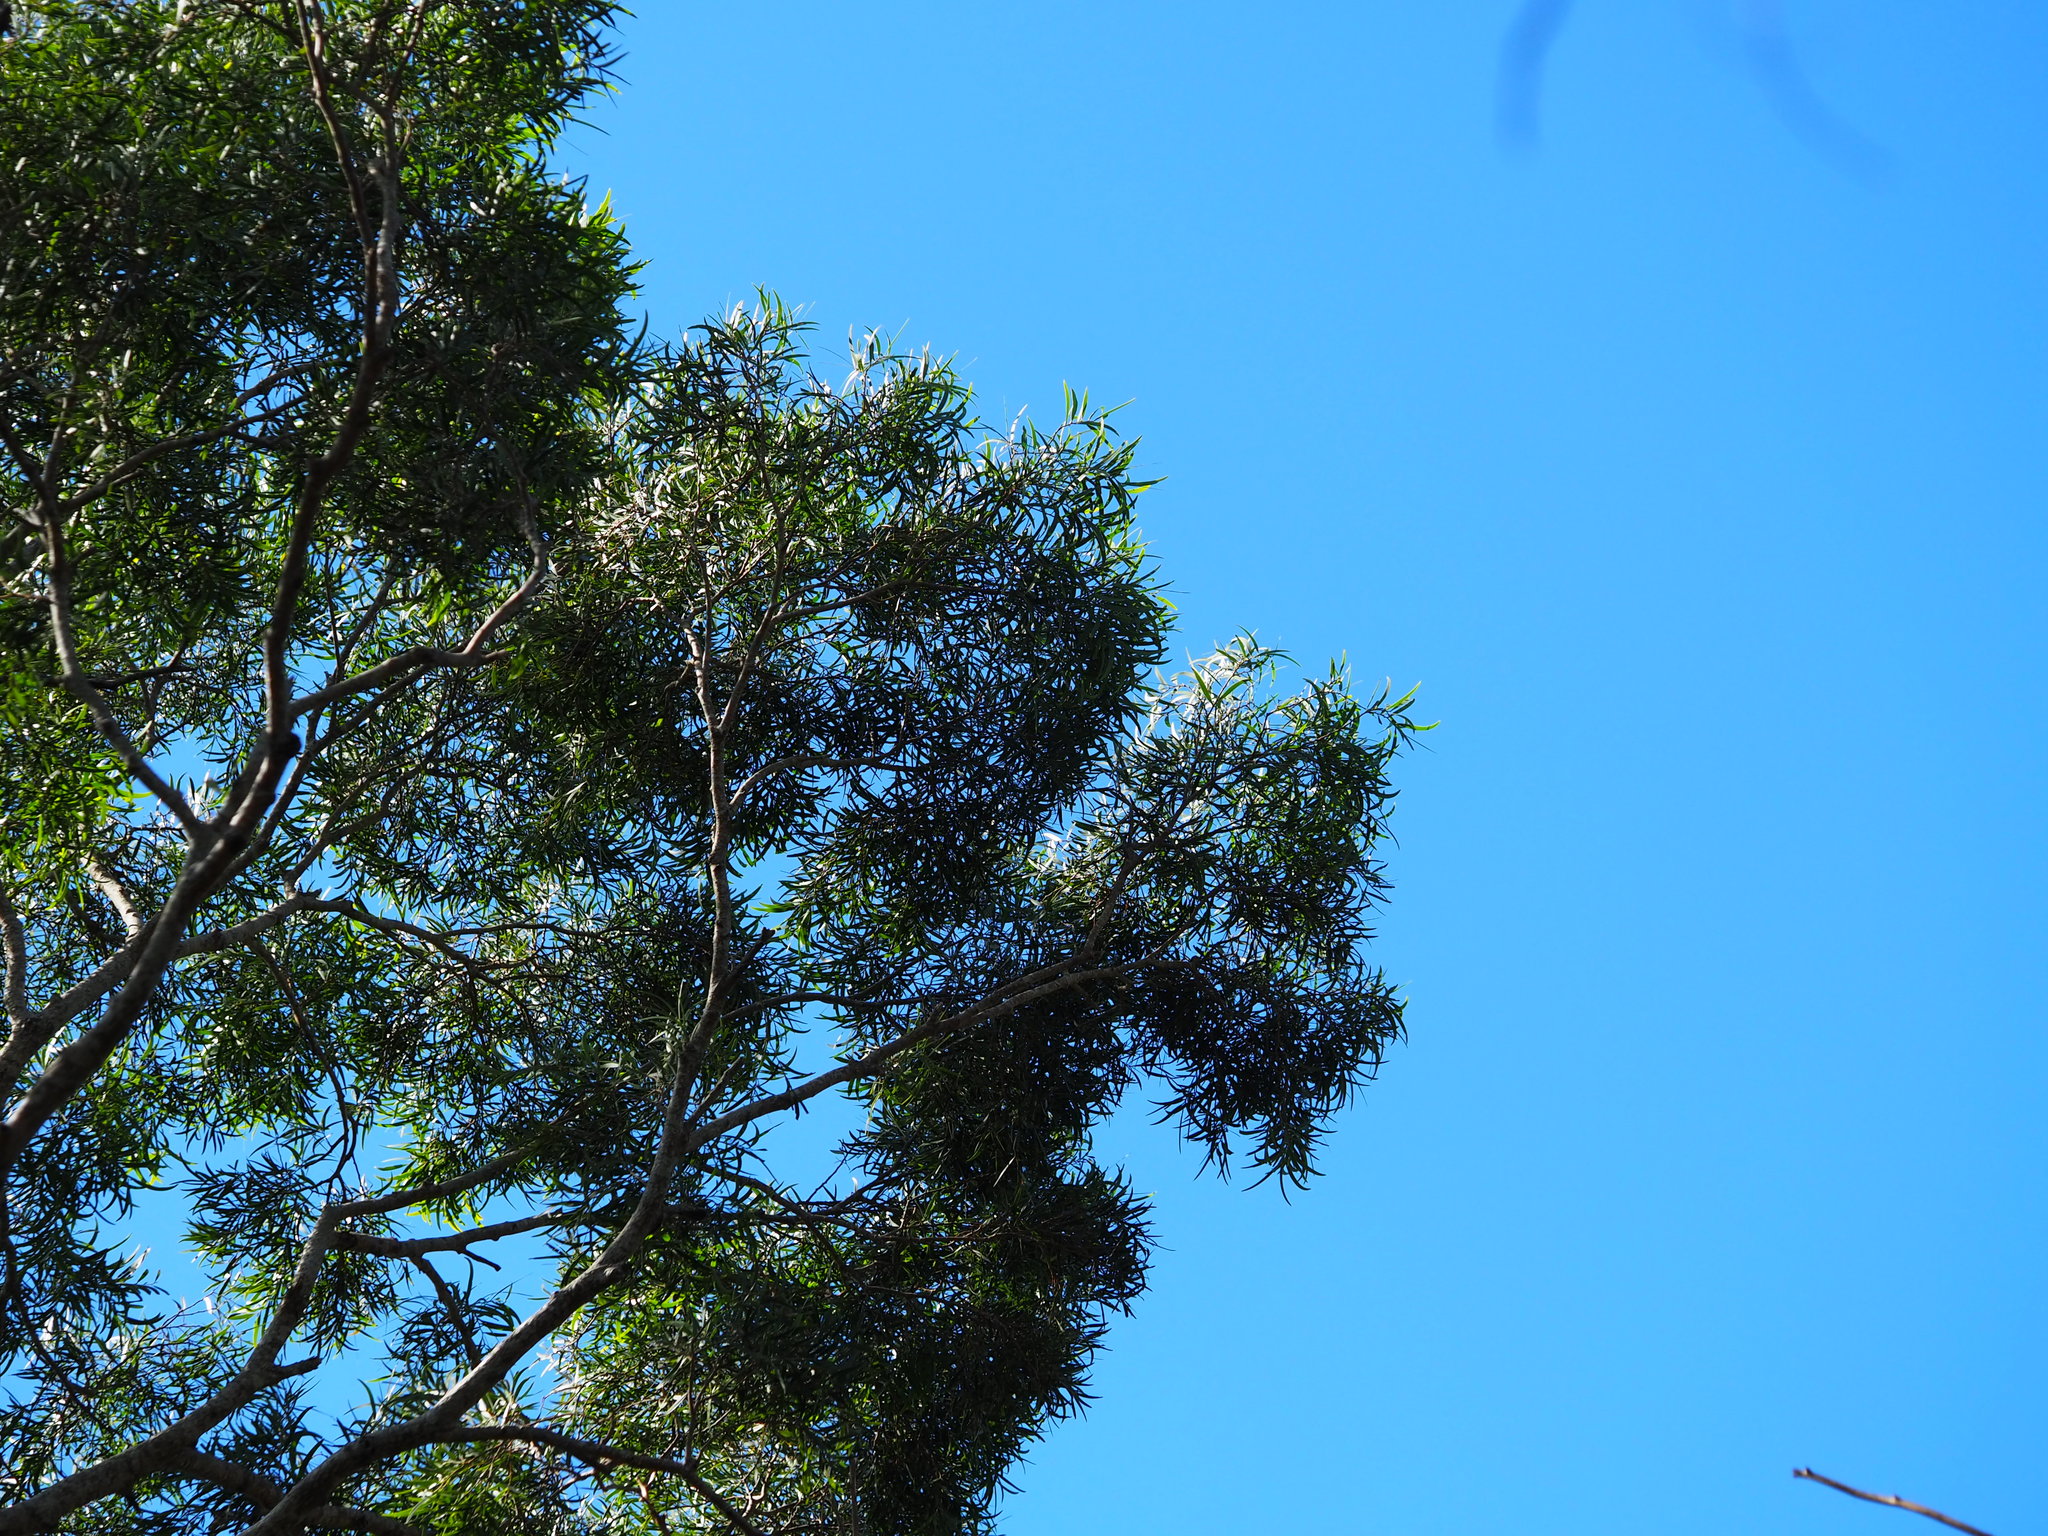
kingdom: Plantae
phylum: Tracheophyta
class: Magnoliopsida
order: Fabales
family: Fabaceae
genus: Acacia
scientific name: Acacia confusa
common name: Formosan koa
